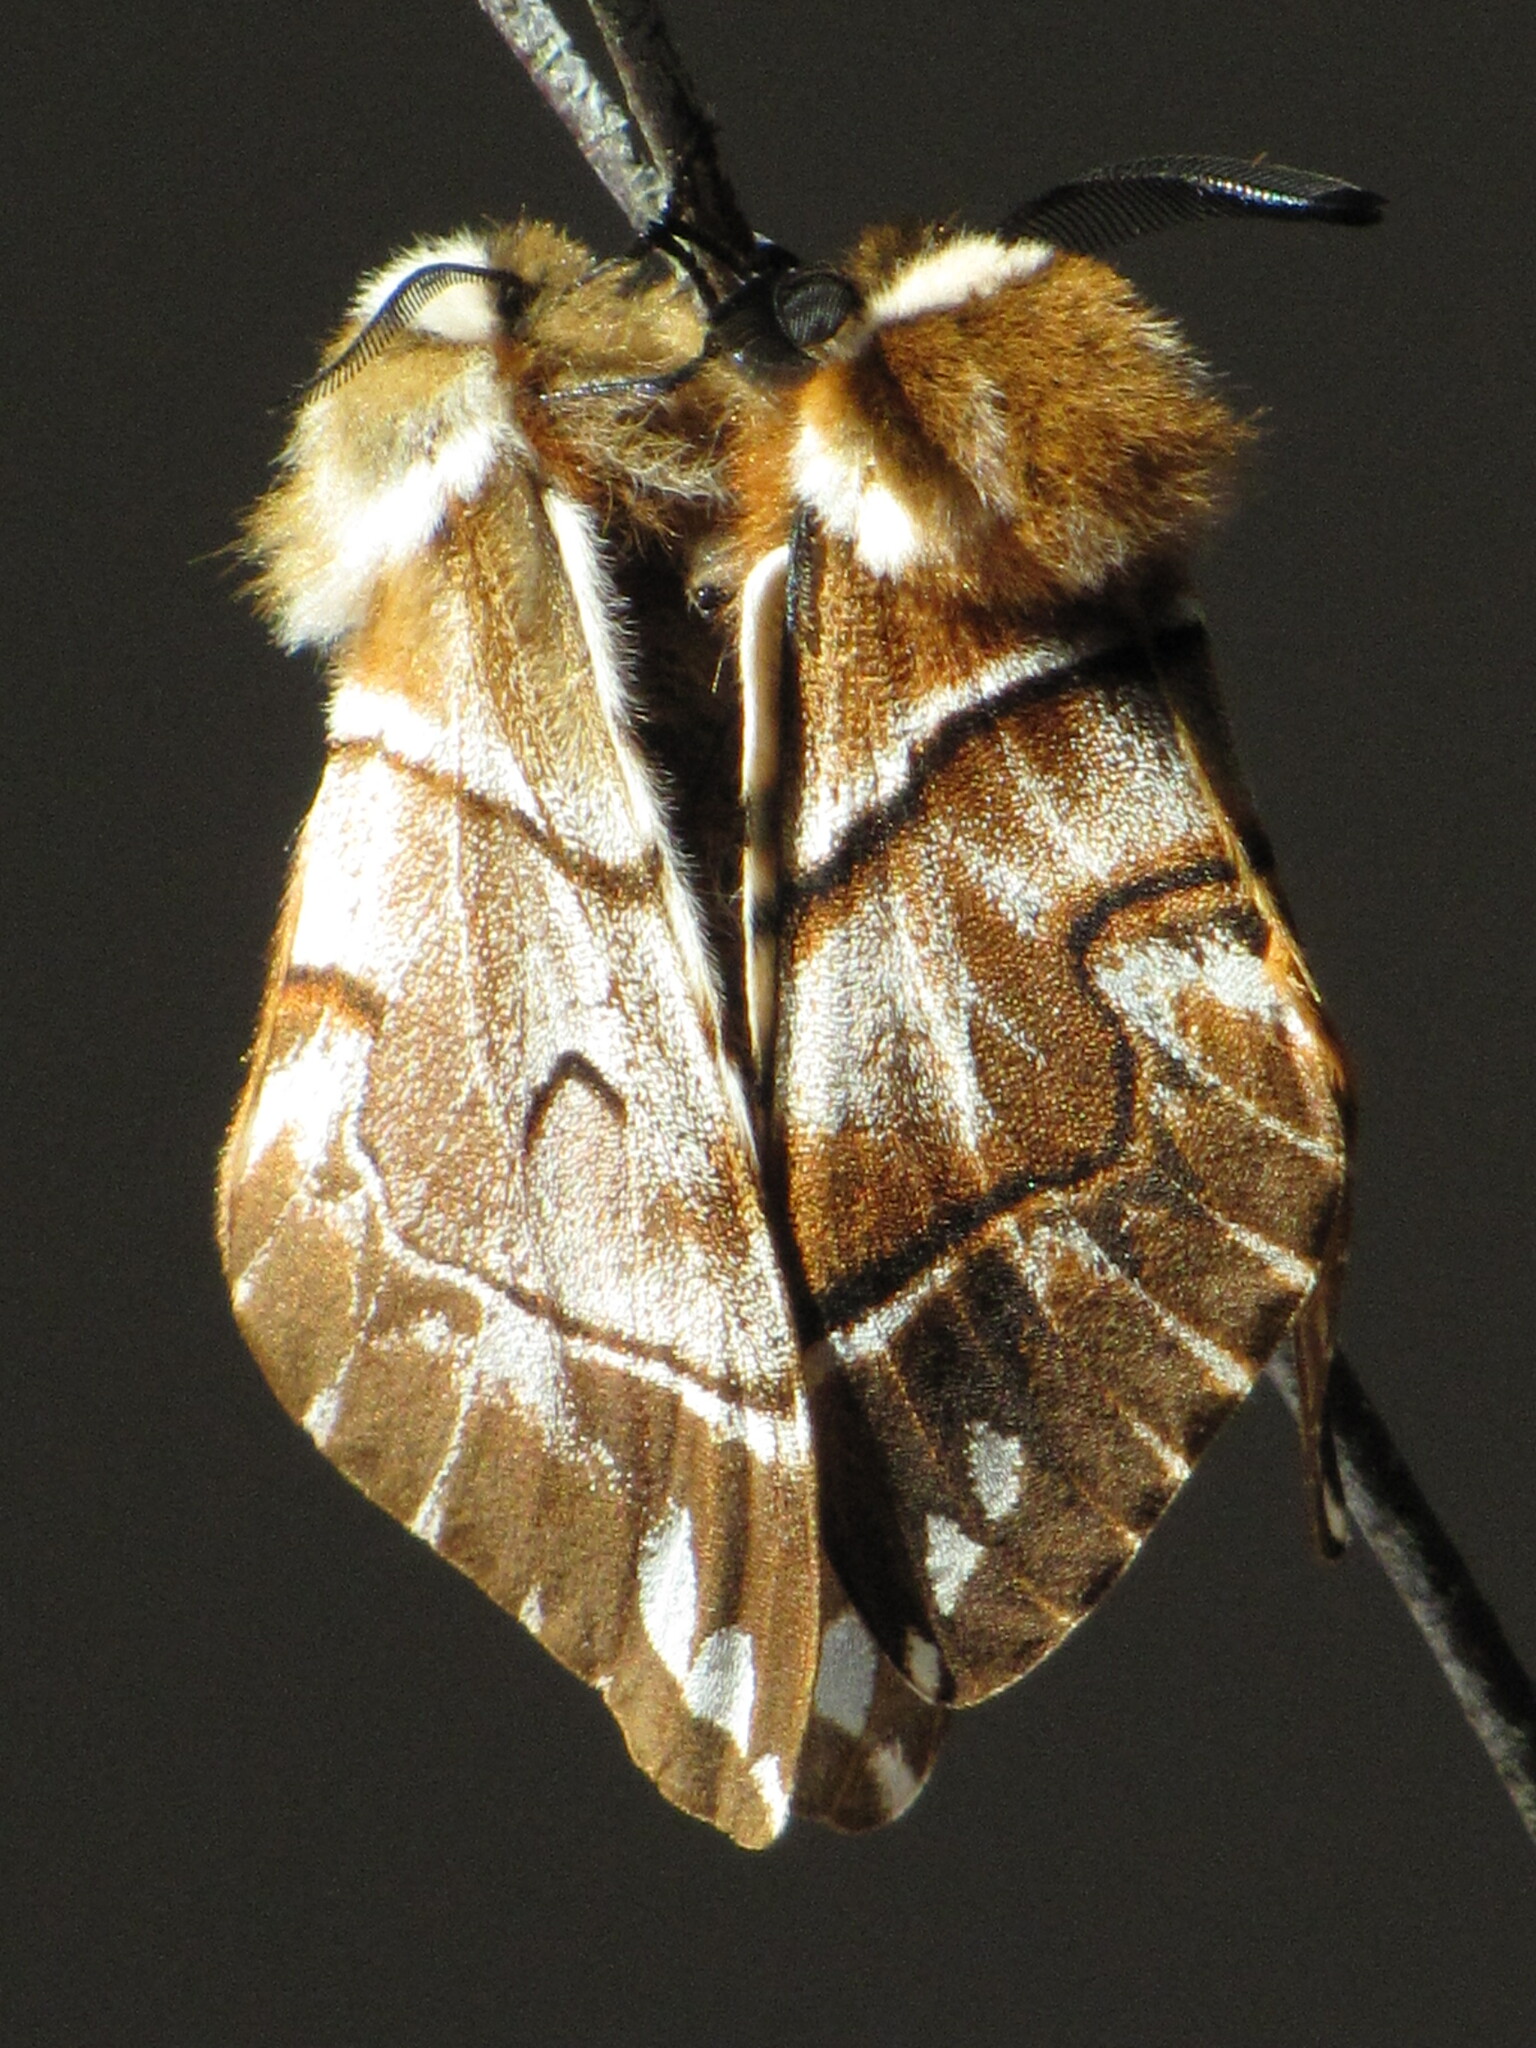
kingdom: Animalia
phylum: Arthropoda
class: Insecta
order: Lepidoptera
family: Endromidae
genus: Endromis
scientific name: Endromis versicolora
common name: Kentish glory
